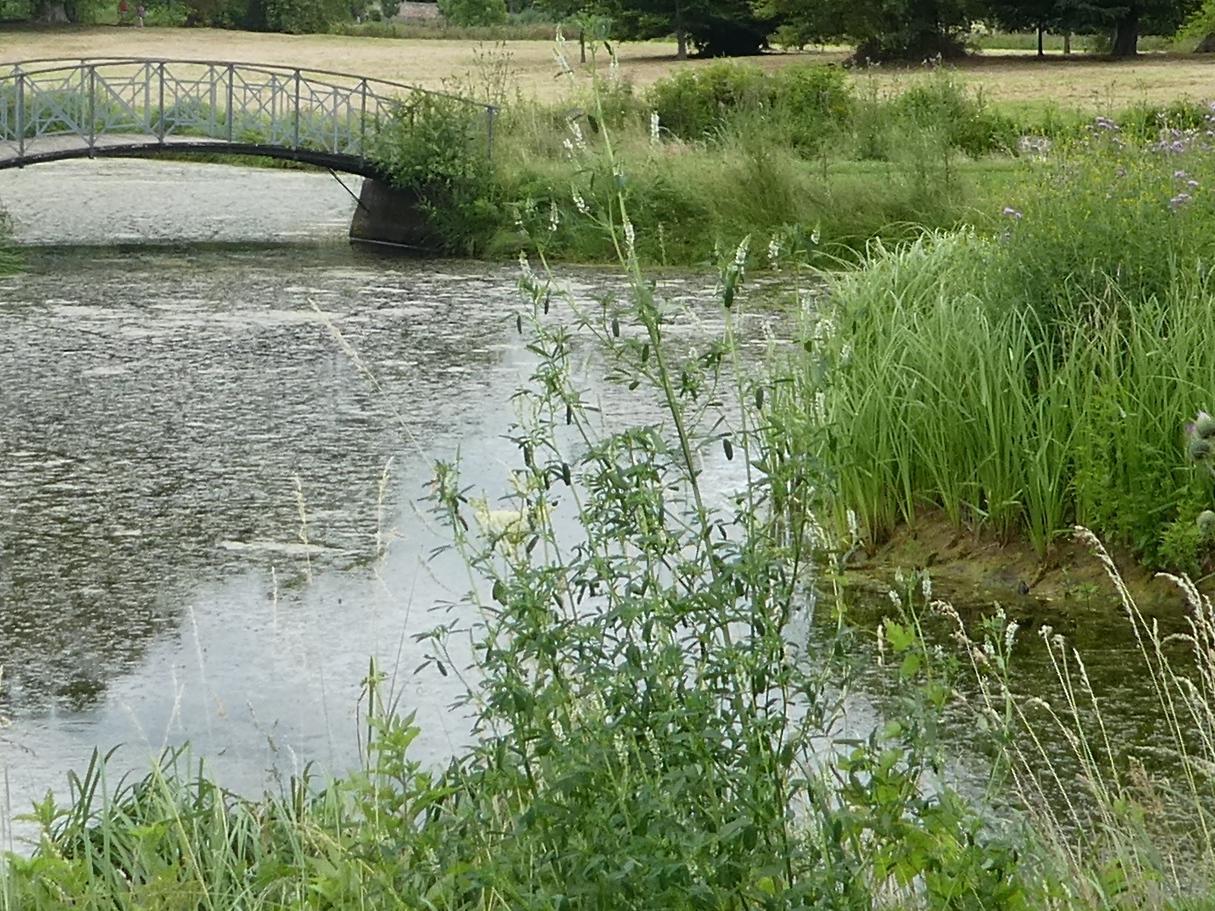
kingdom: Plantae
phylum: Tracheophyta
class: Magnoliopsida
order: Fabales
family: Fabaceae
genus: Melilotus
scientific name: Melilotus albus
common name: White melilot
